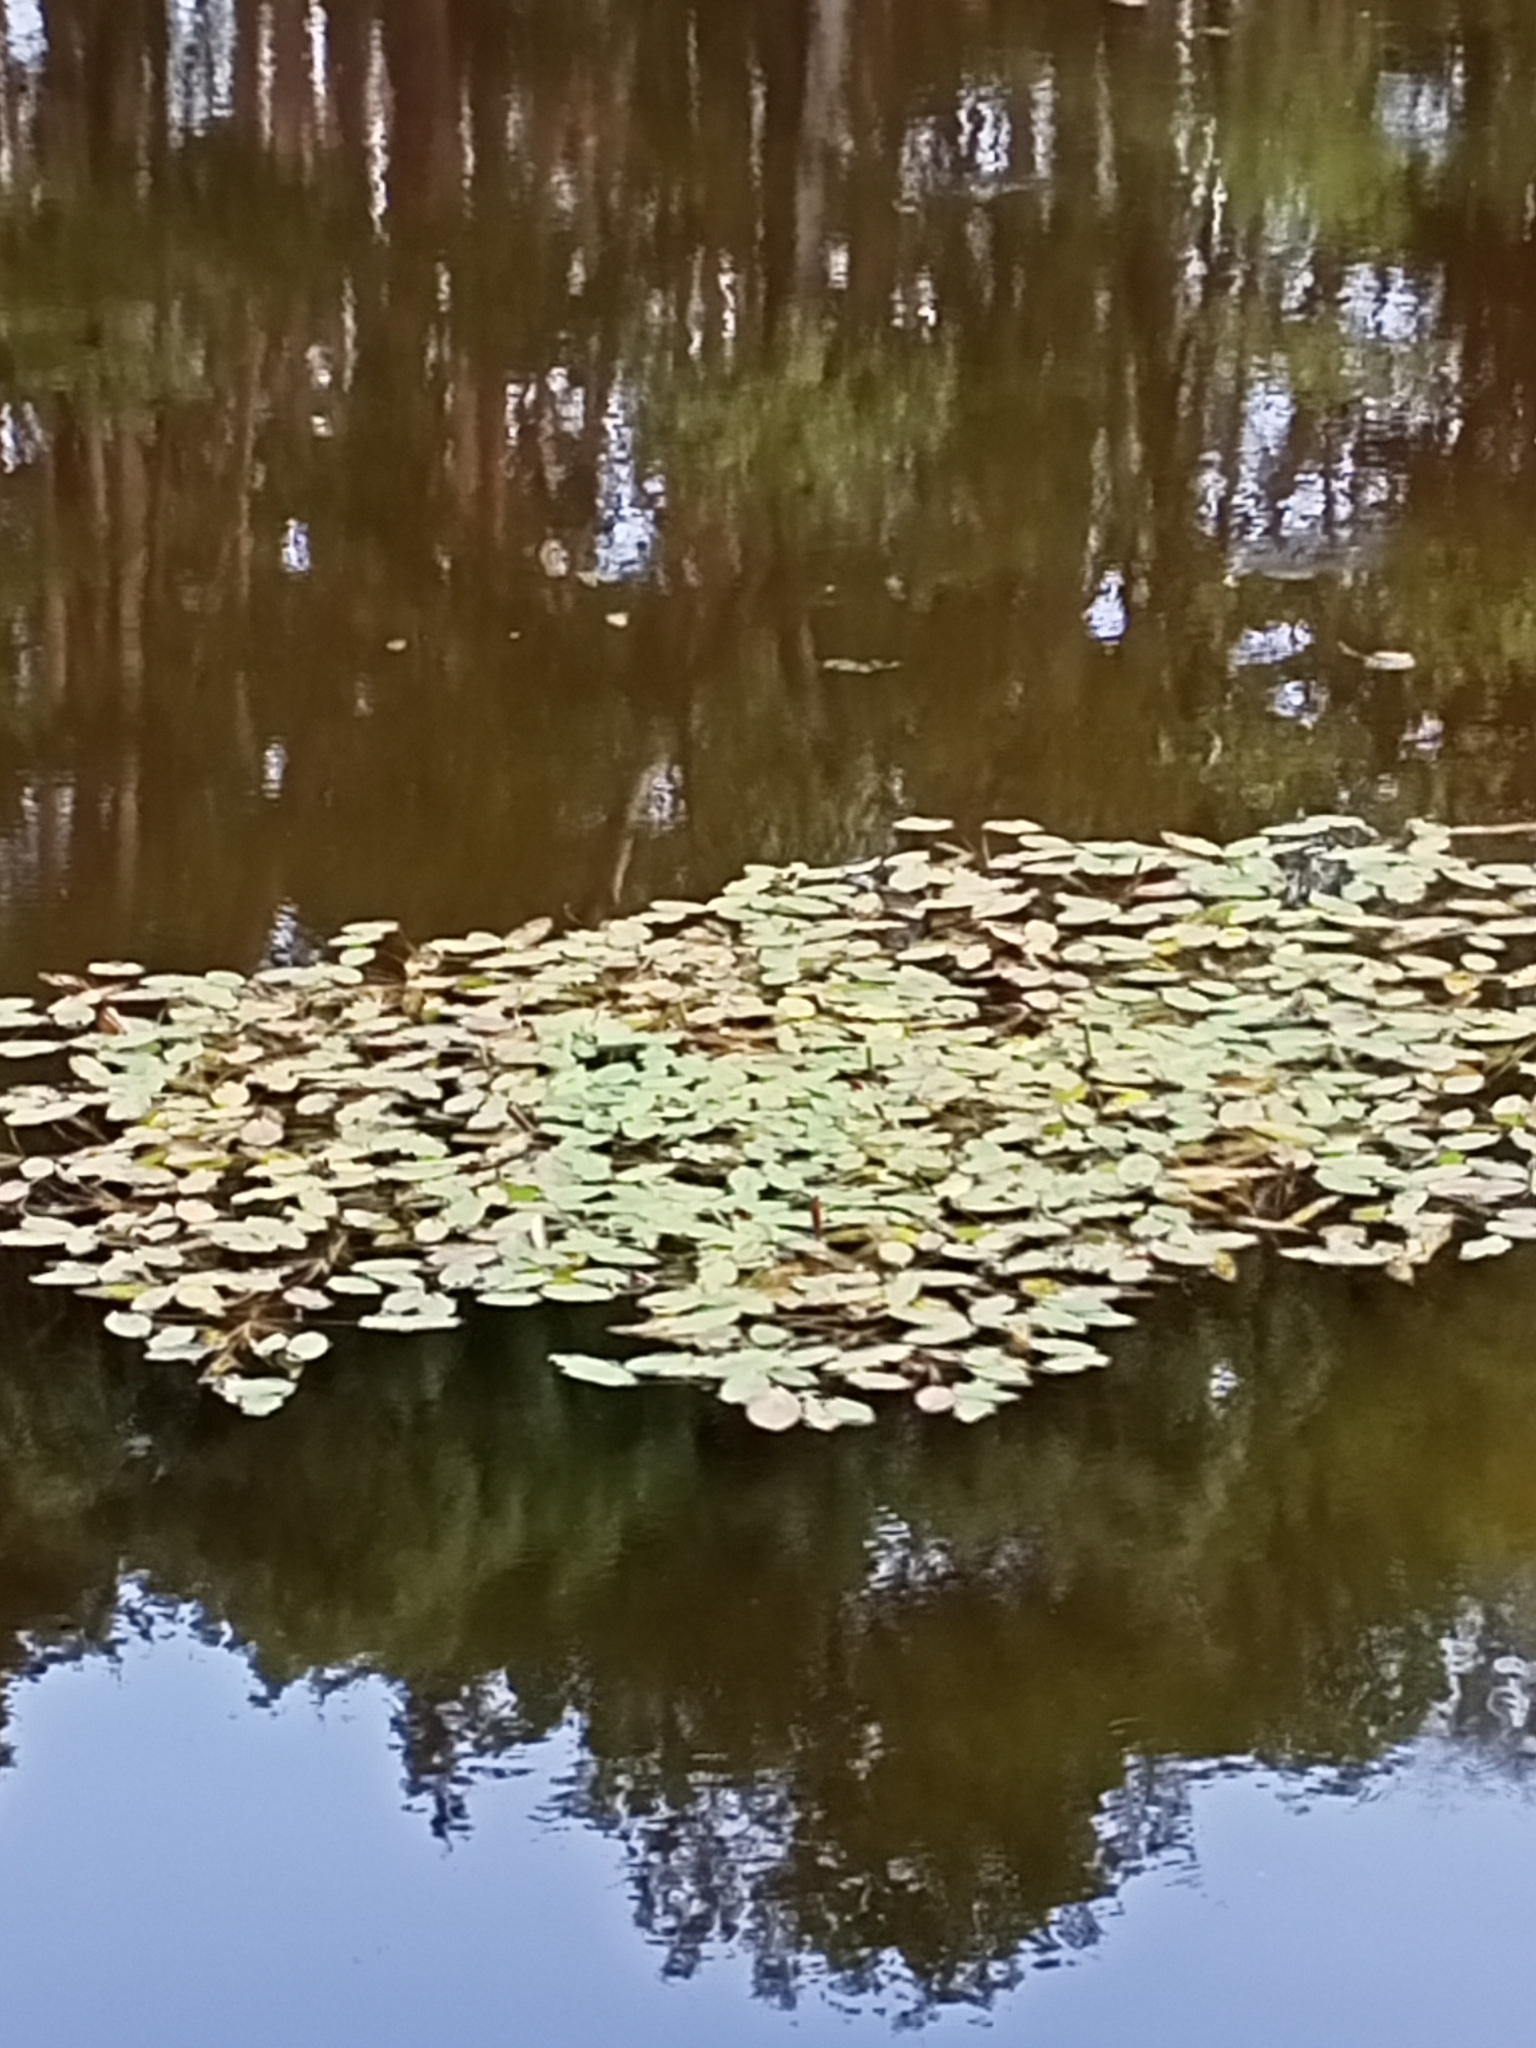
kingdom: Plantae
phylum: Tracheophyta
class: Magnoliopsida
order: Nymphaeales
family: Nymphaeaceae
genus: Nuphar
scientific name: Nuphar lutea
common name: Yellow water-lily
